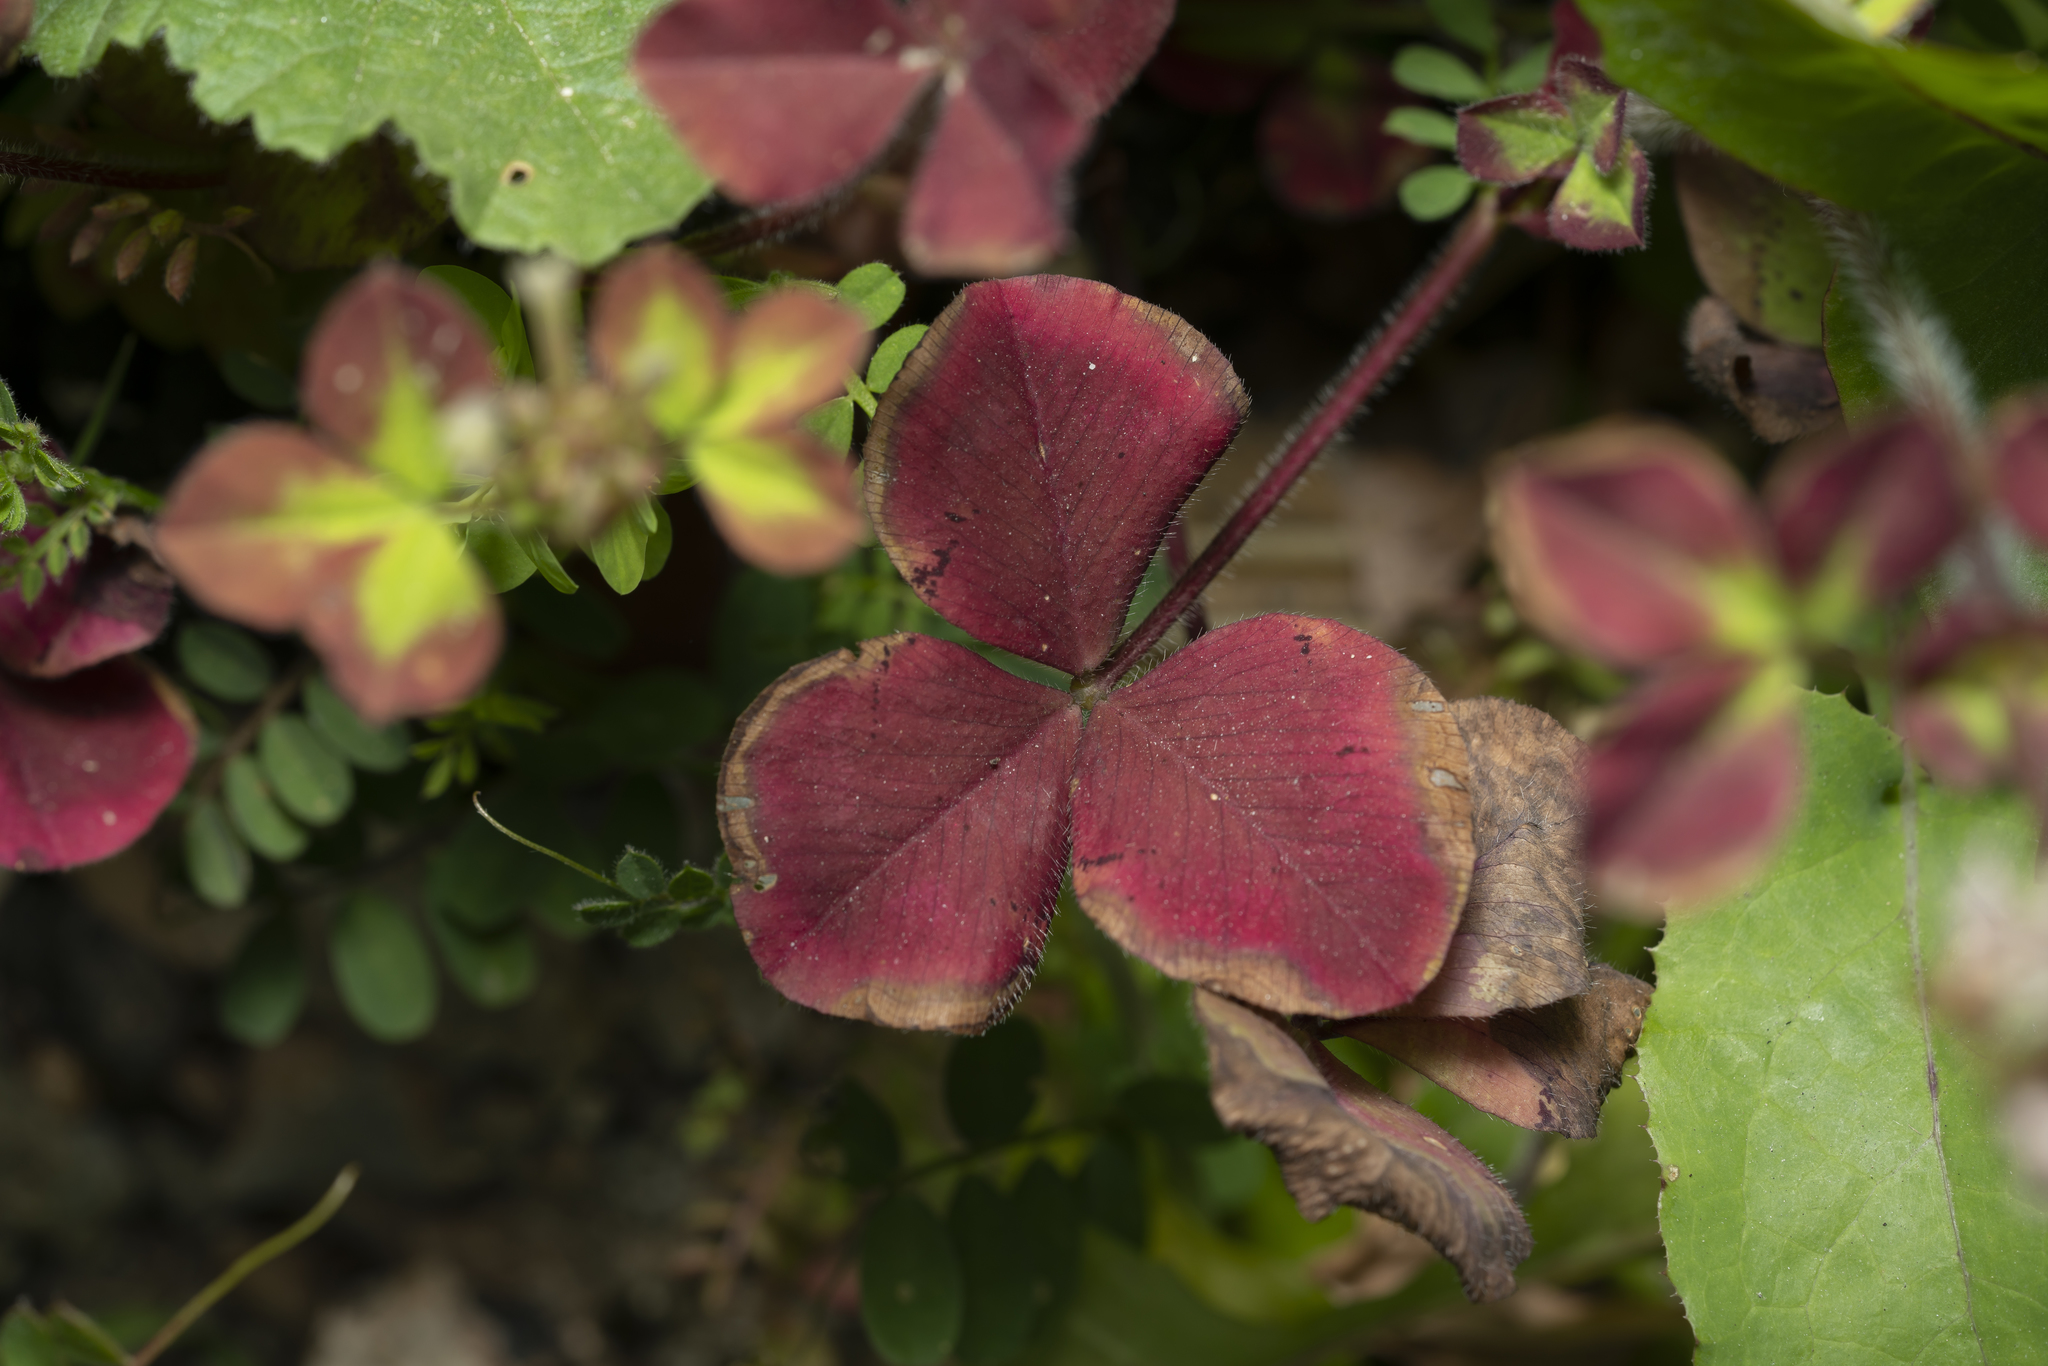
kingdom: Plantae
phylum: Tracheophyta
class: Magnoliopsida
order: Fabales
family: Fabaceae
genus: Trifolium
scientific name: Trifolium clypeatum
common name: Shield clover
